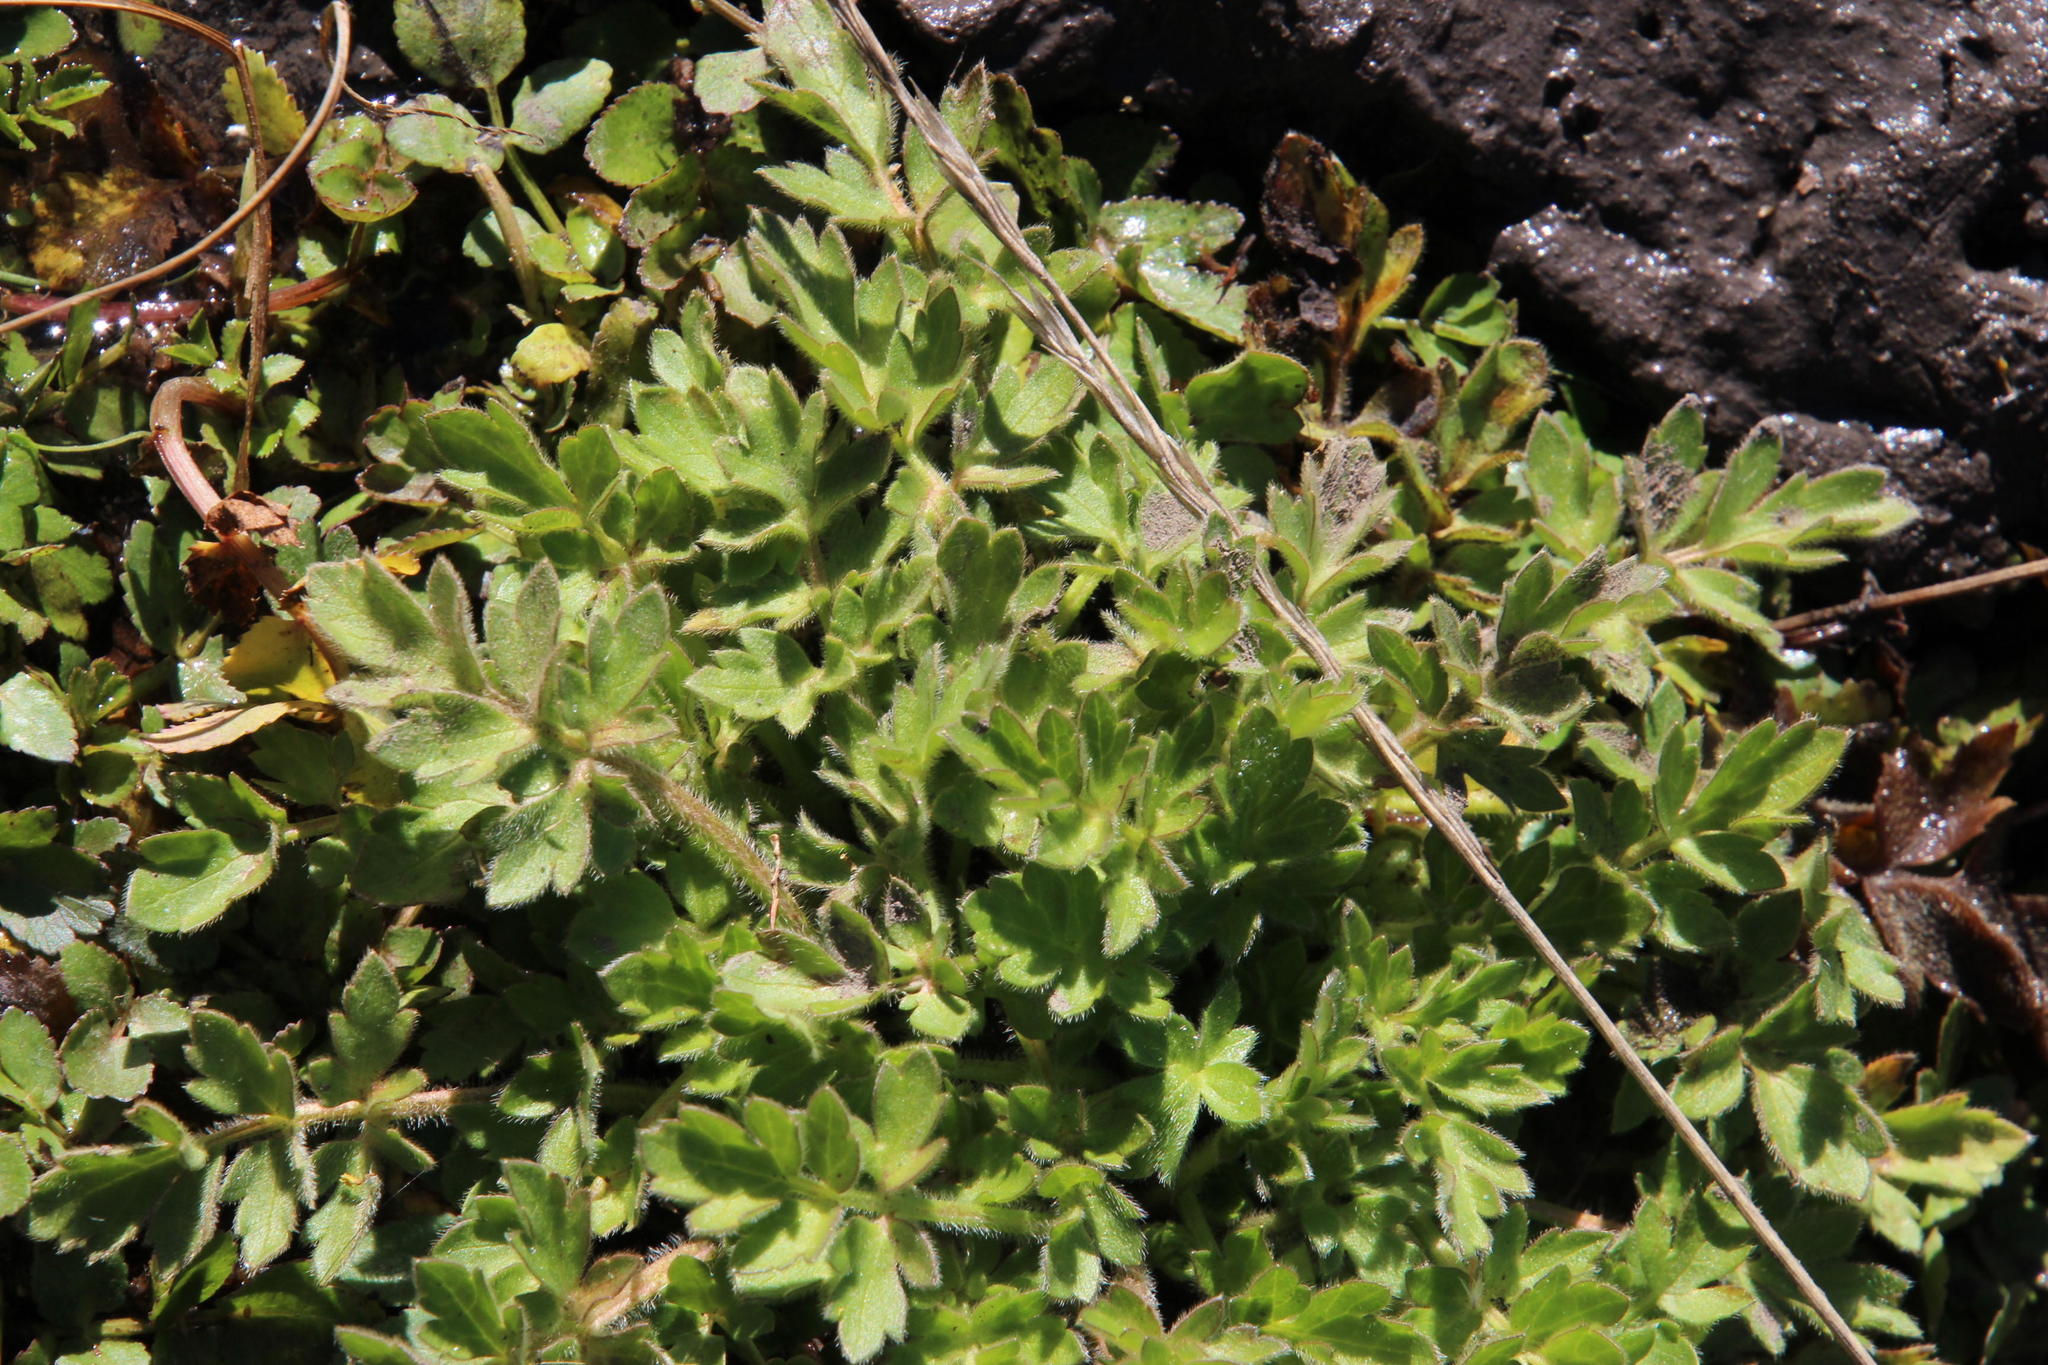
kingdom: Plantae
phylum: Tracheophyta
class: Magnoliopsida
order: Ranunculales
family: Ranunculaceae
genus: Ranunculus
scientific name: Ranunculus multifidus
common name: Wild buttercup
